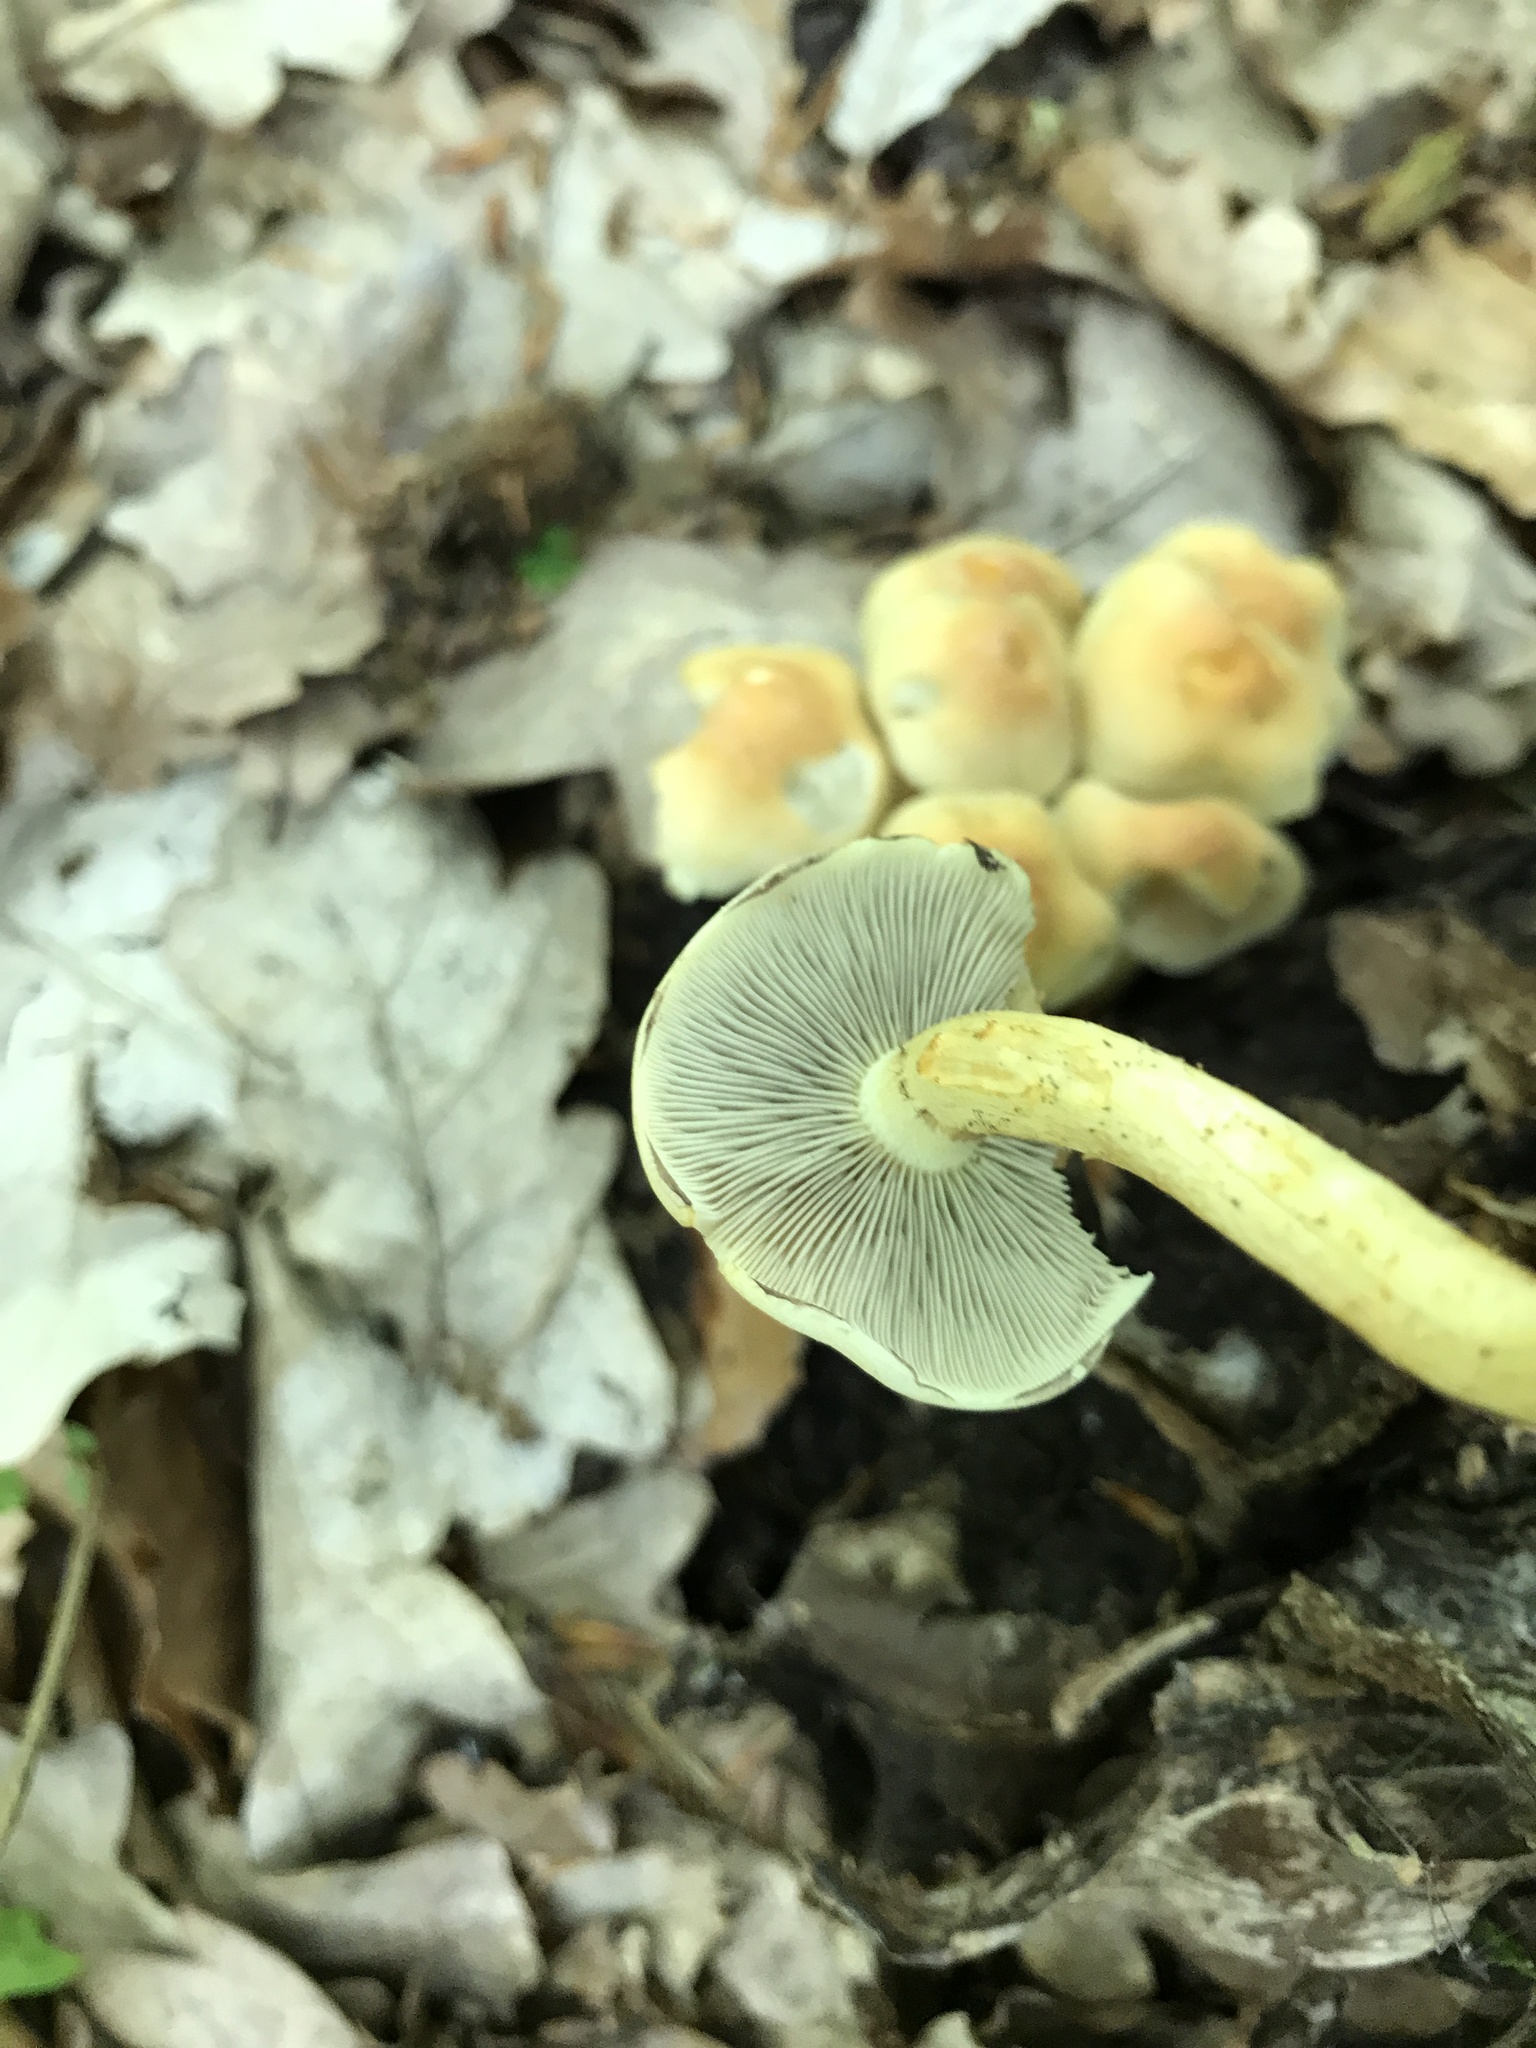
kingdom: Fungi
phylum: Basidiomycota
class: Agaricomycetes
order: Agaricales
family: Strophariaceae
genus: Hypholoma
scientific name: Hypholoma fasciculare
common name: Sulphur tuft
